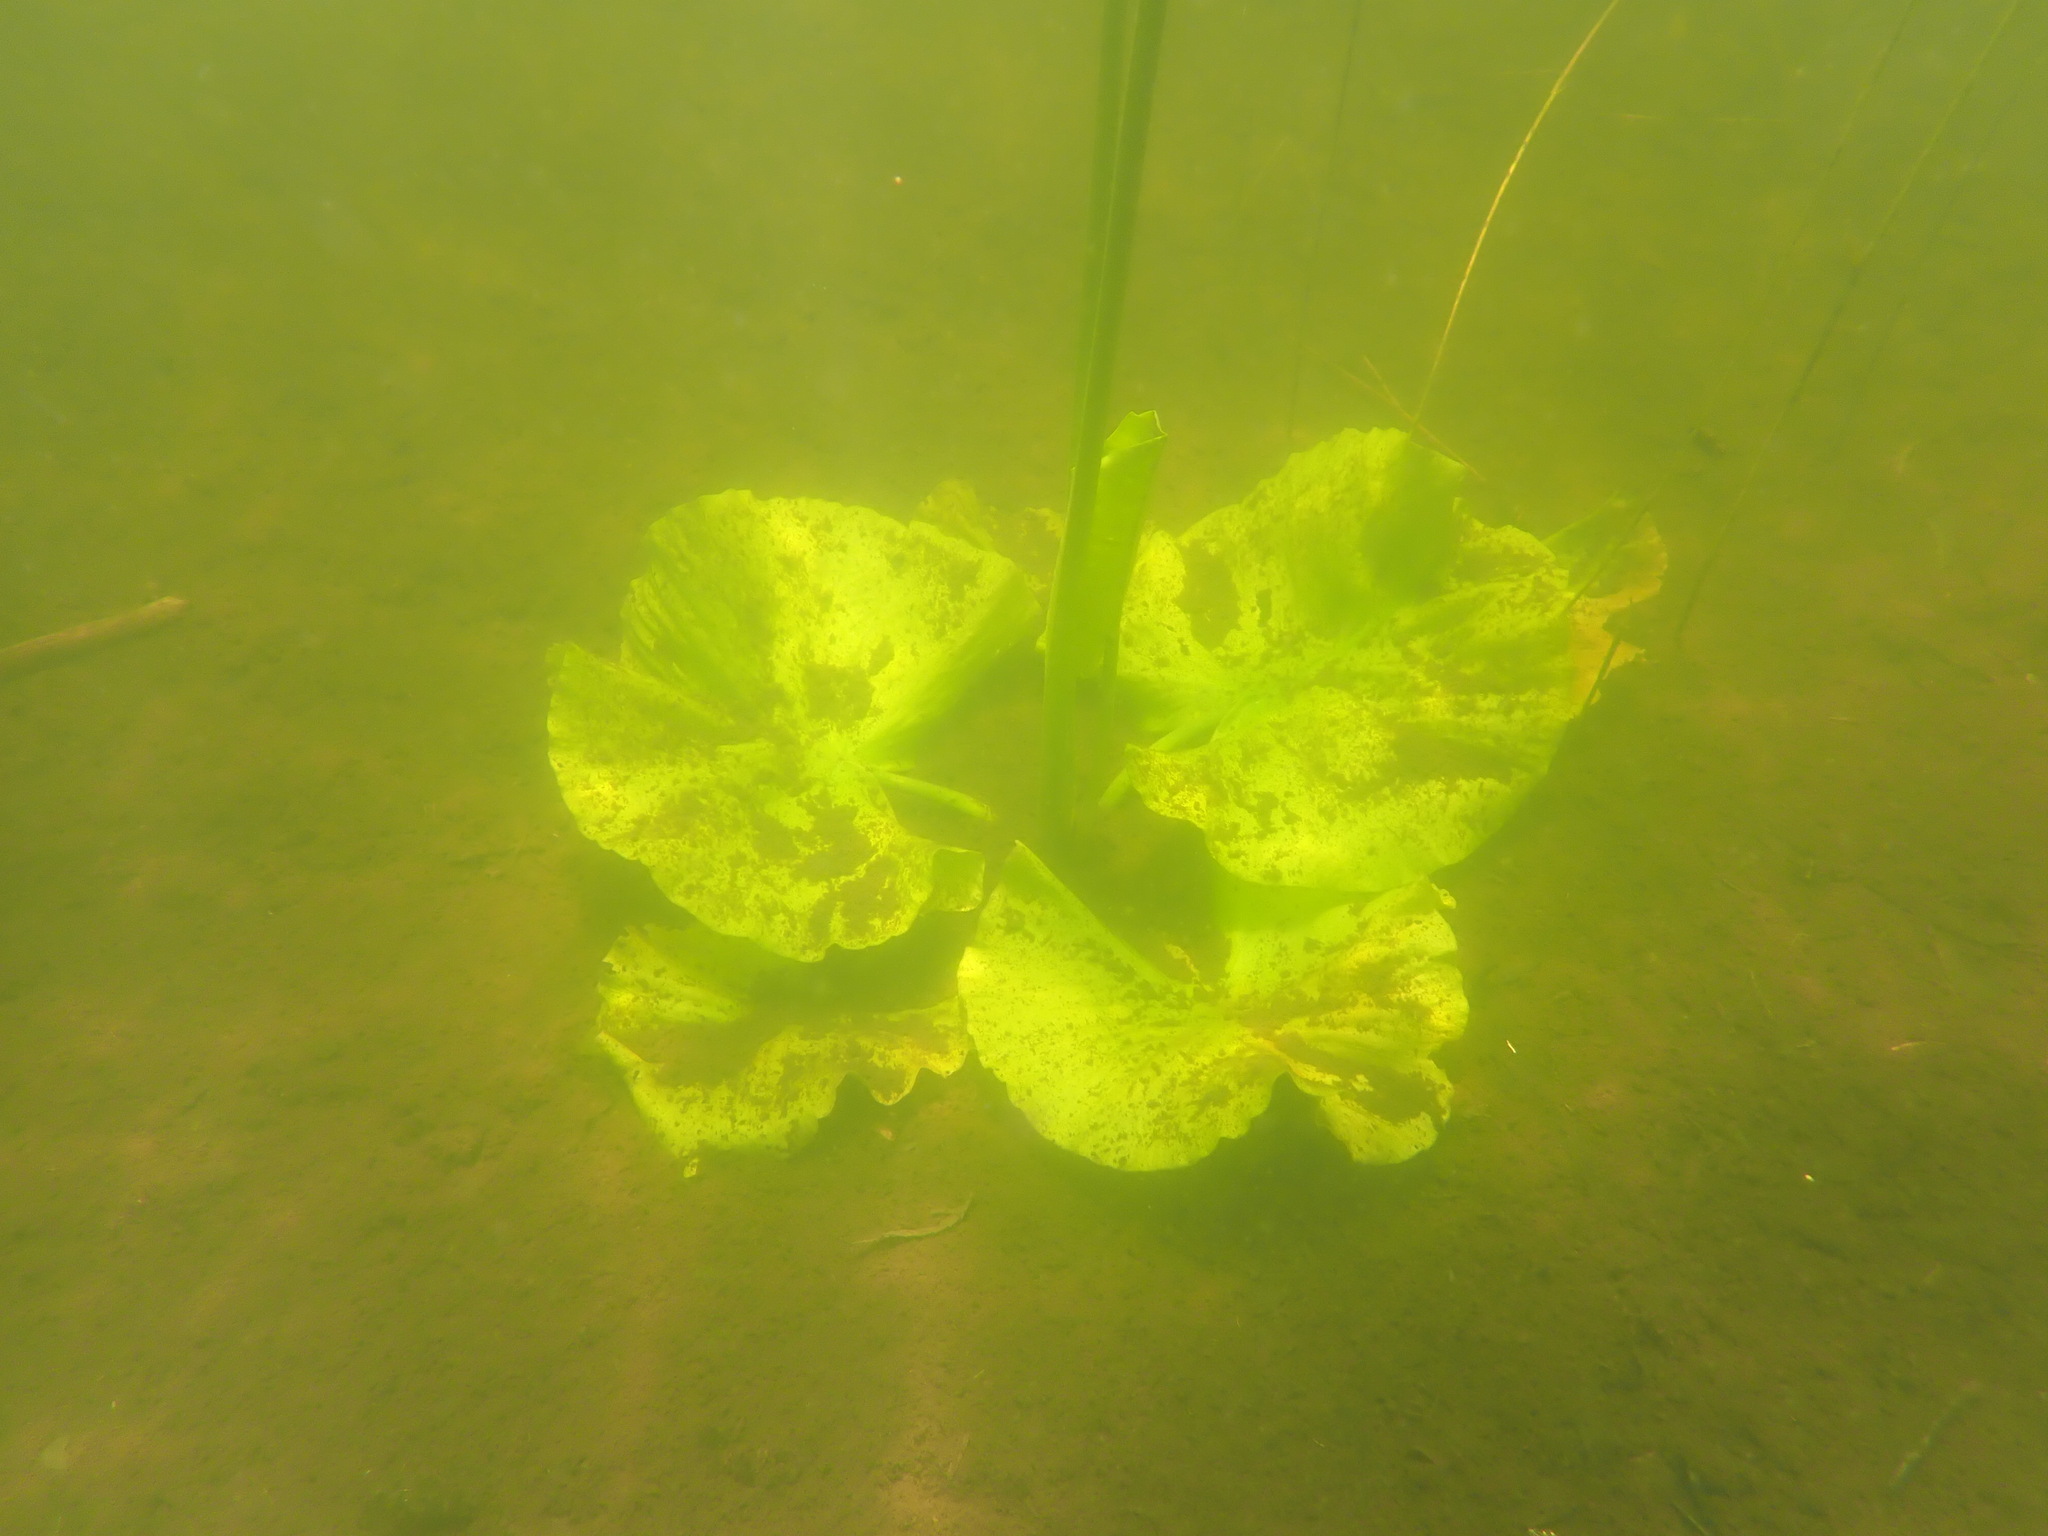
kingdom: Plantae
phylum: Tracheophyta
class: Magnoliopsida
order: Nymphaeales
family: Nymphaeaceae
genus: Nuphar
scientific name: Nuphar polysepala
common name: Rocky mountain cow-lily
